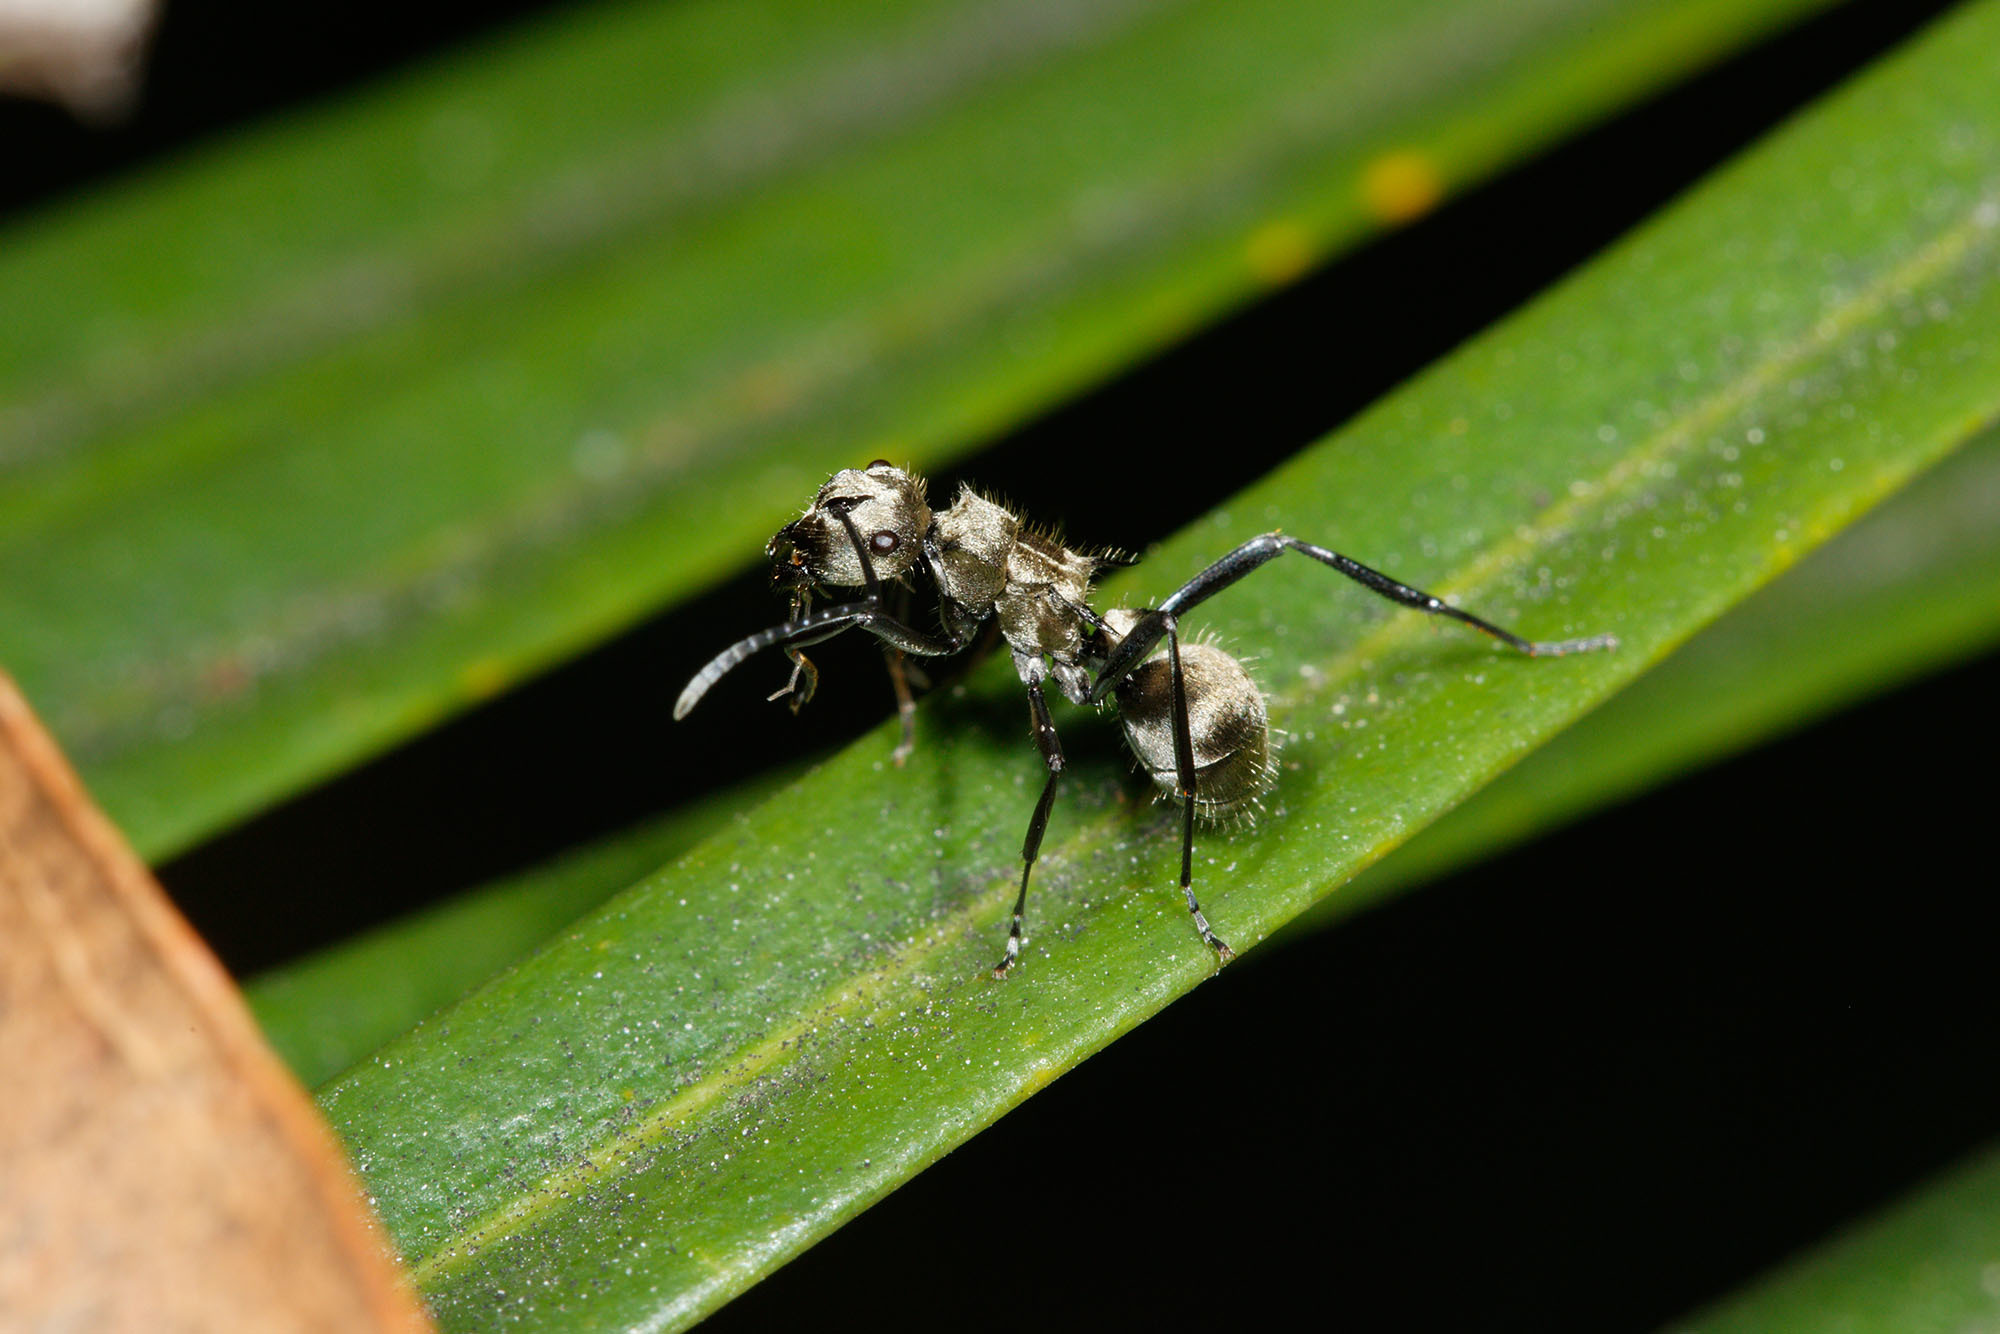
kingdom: Animalia
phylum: Arthropoda
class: Insecta
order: Hymenoptera
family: Formicidae
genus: Polyrhachis
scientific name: Polyrhachis cupreata
